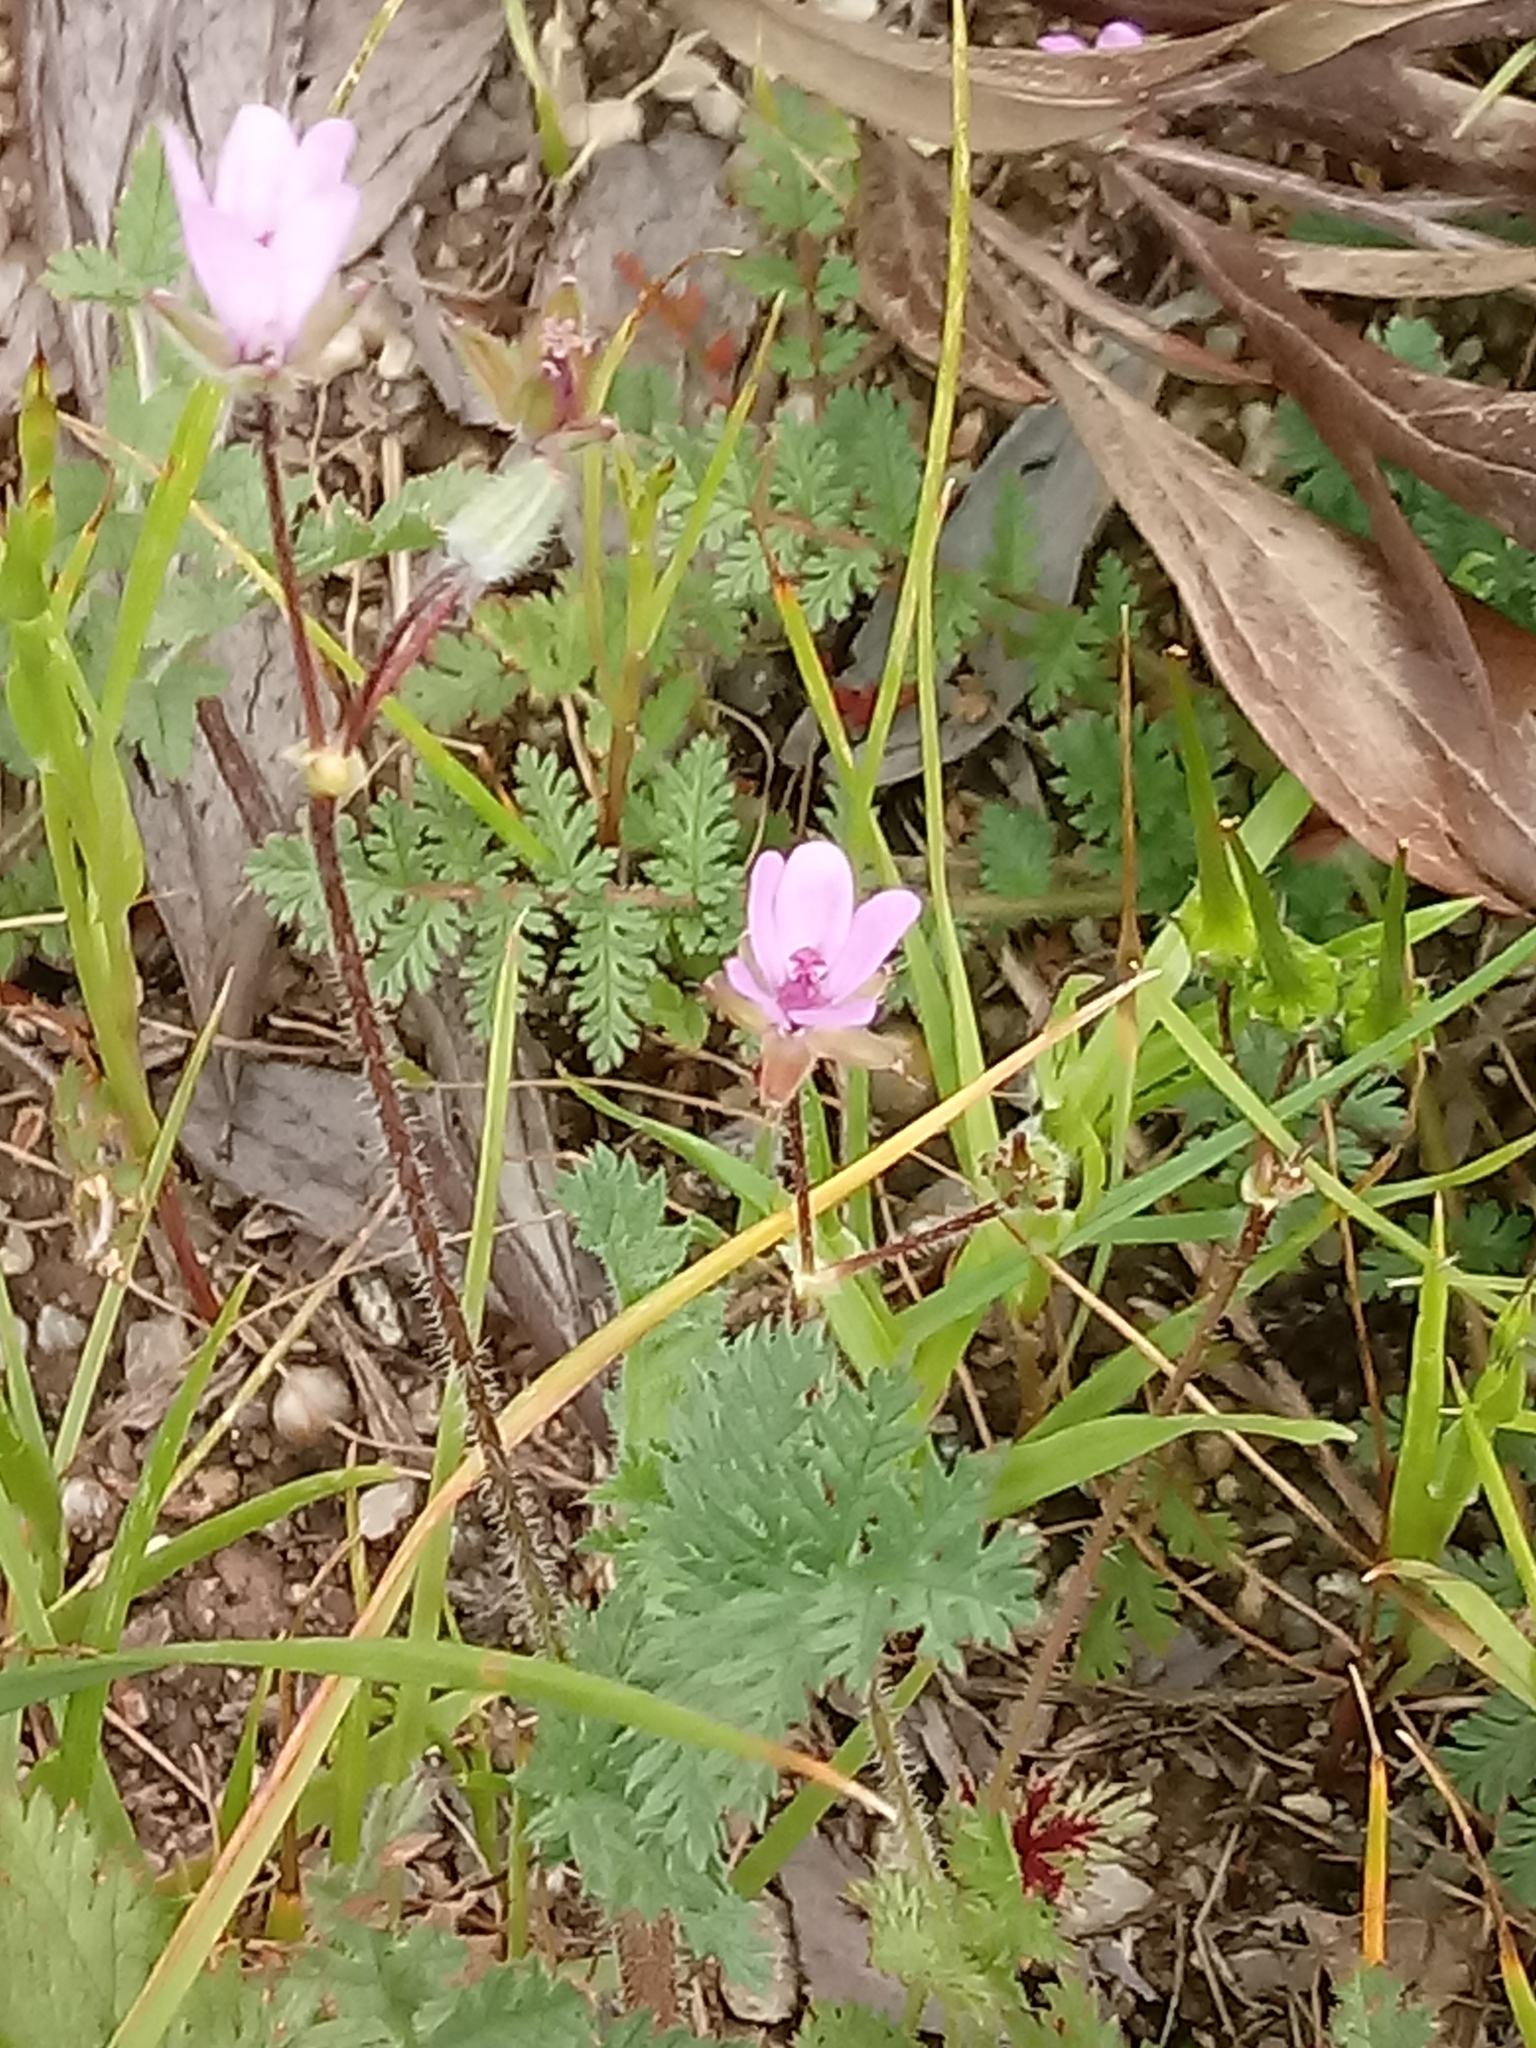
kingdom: Plantae
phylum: Tracheophyta
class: Magnoliopsida
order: Geraniales
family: Geraniaceae
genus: Erodium
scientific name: Erodium cicutarium
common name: Common stork's-bill
